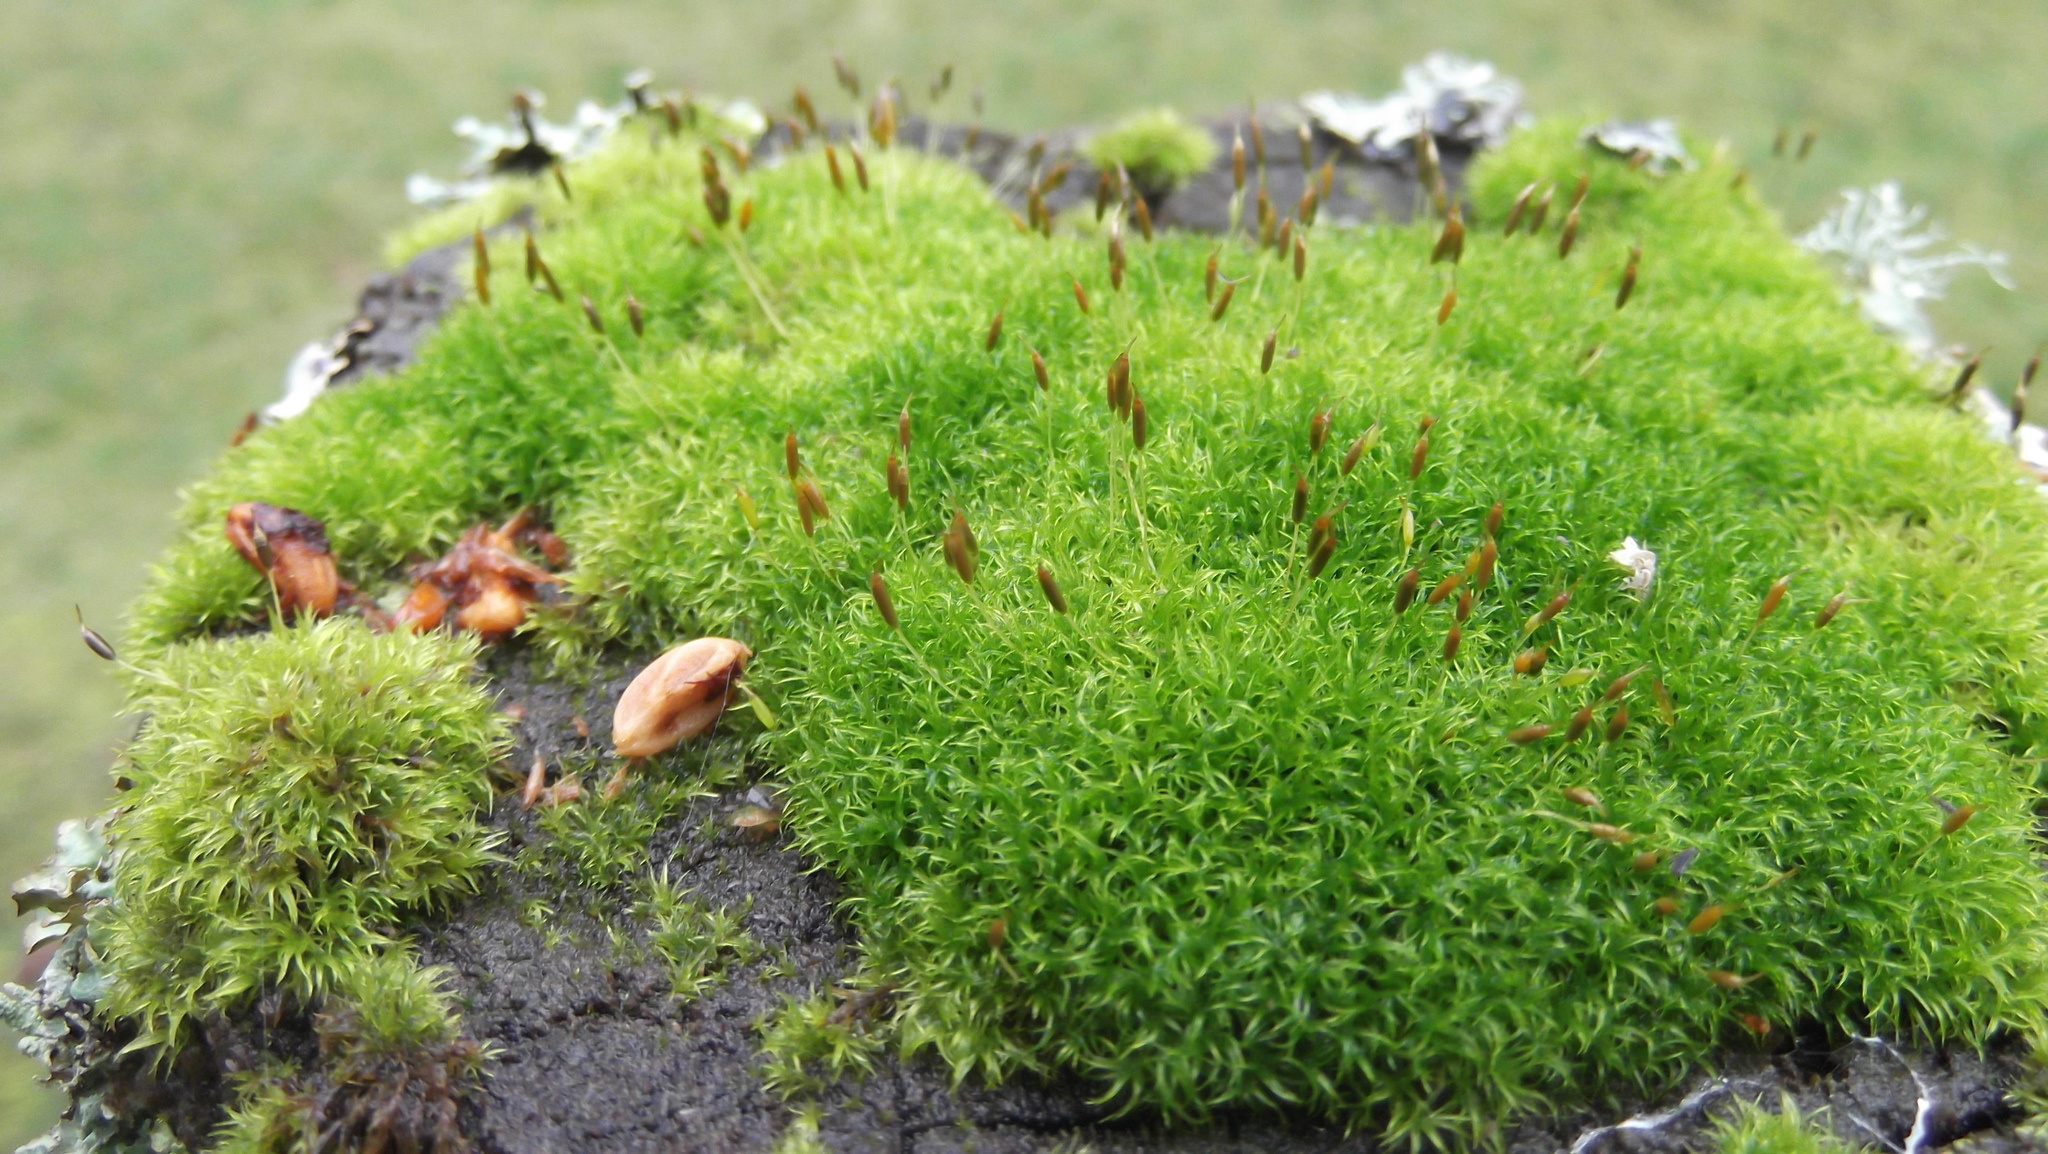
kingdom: Plantae
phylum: Bryophyta
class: Bryopsida
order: Dicranales
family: Rhabdoweisiaceae
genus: Dicranoweisia
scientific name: Dicranoweisia cirrata
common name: Common pincushion
